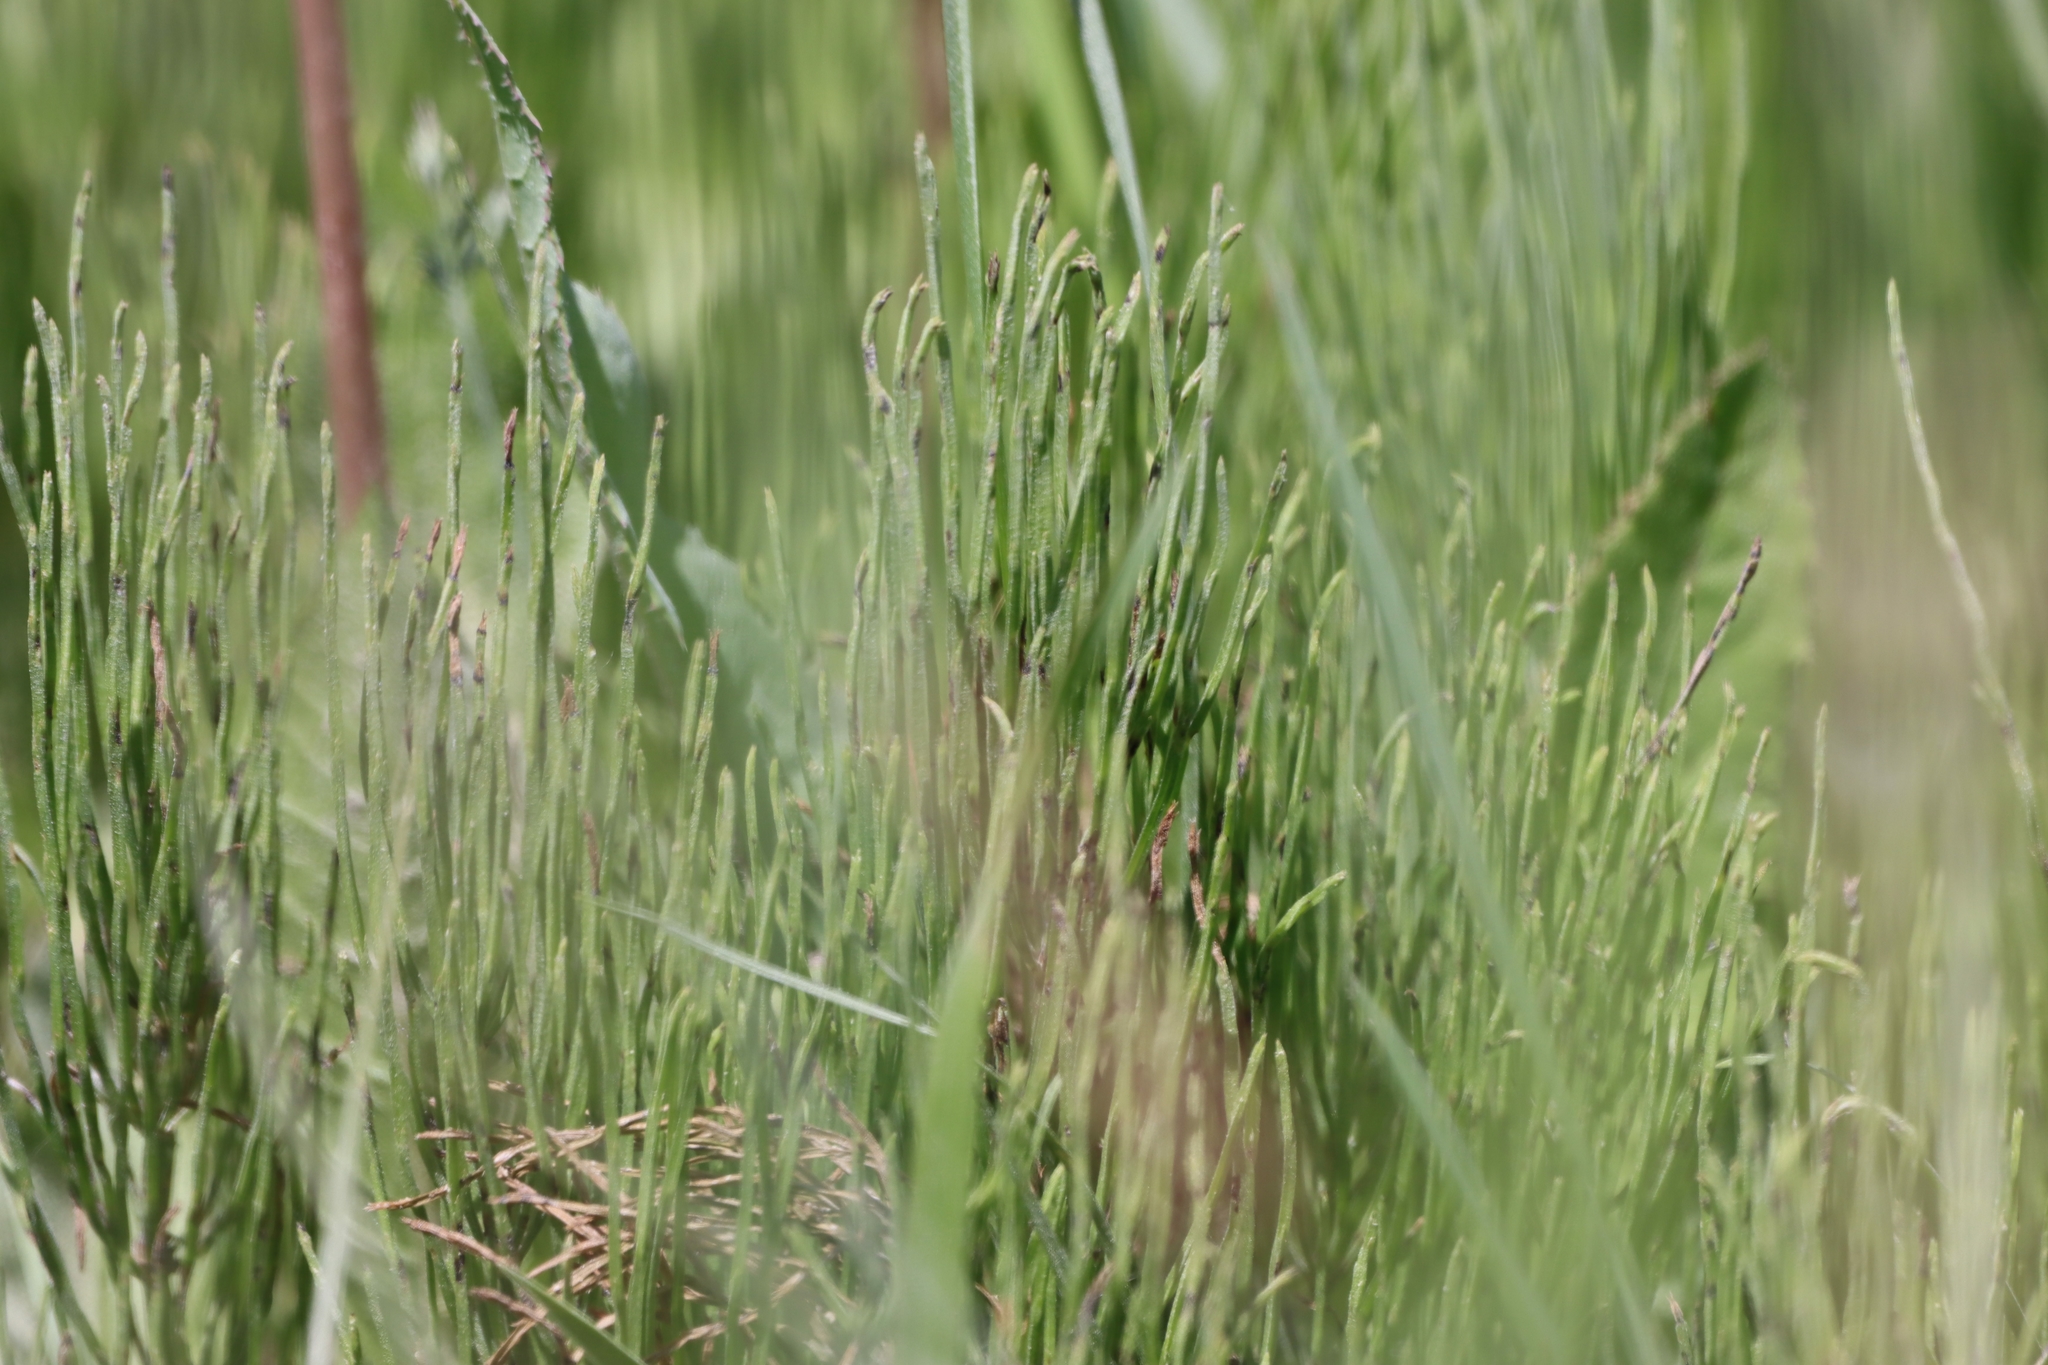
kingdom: Plantae
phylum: Tracheophyta
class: Polypodiopsida
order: Equisetales
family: Equisetaceae
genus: Equisetum
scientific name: Equisetum arvense
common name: Field horsetail
